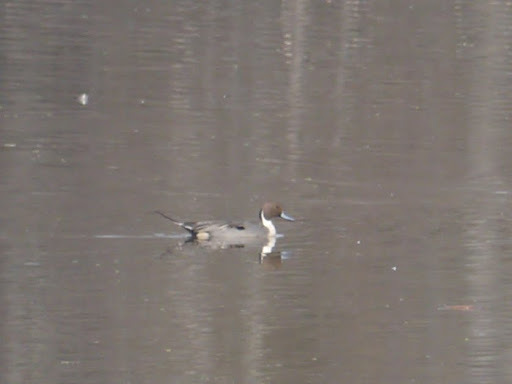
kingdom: Animalia
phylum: Chordata
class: Aves
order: Anseriformes
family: Anatidae
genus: Anas
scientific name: Anas acuta
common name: Northern pintail
